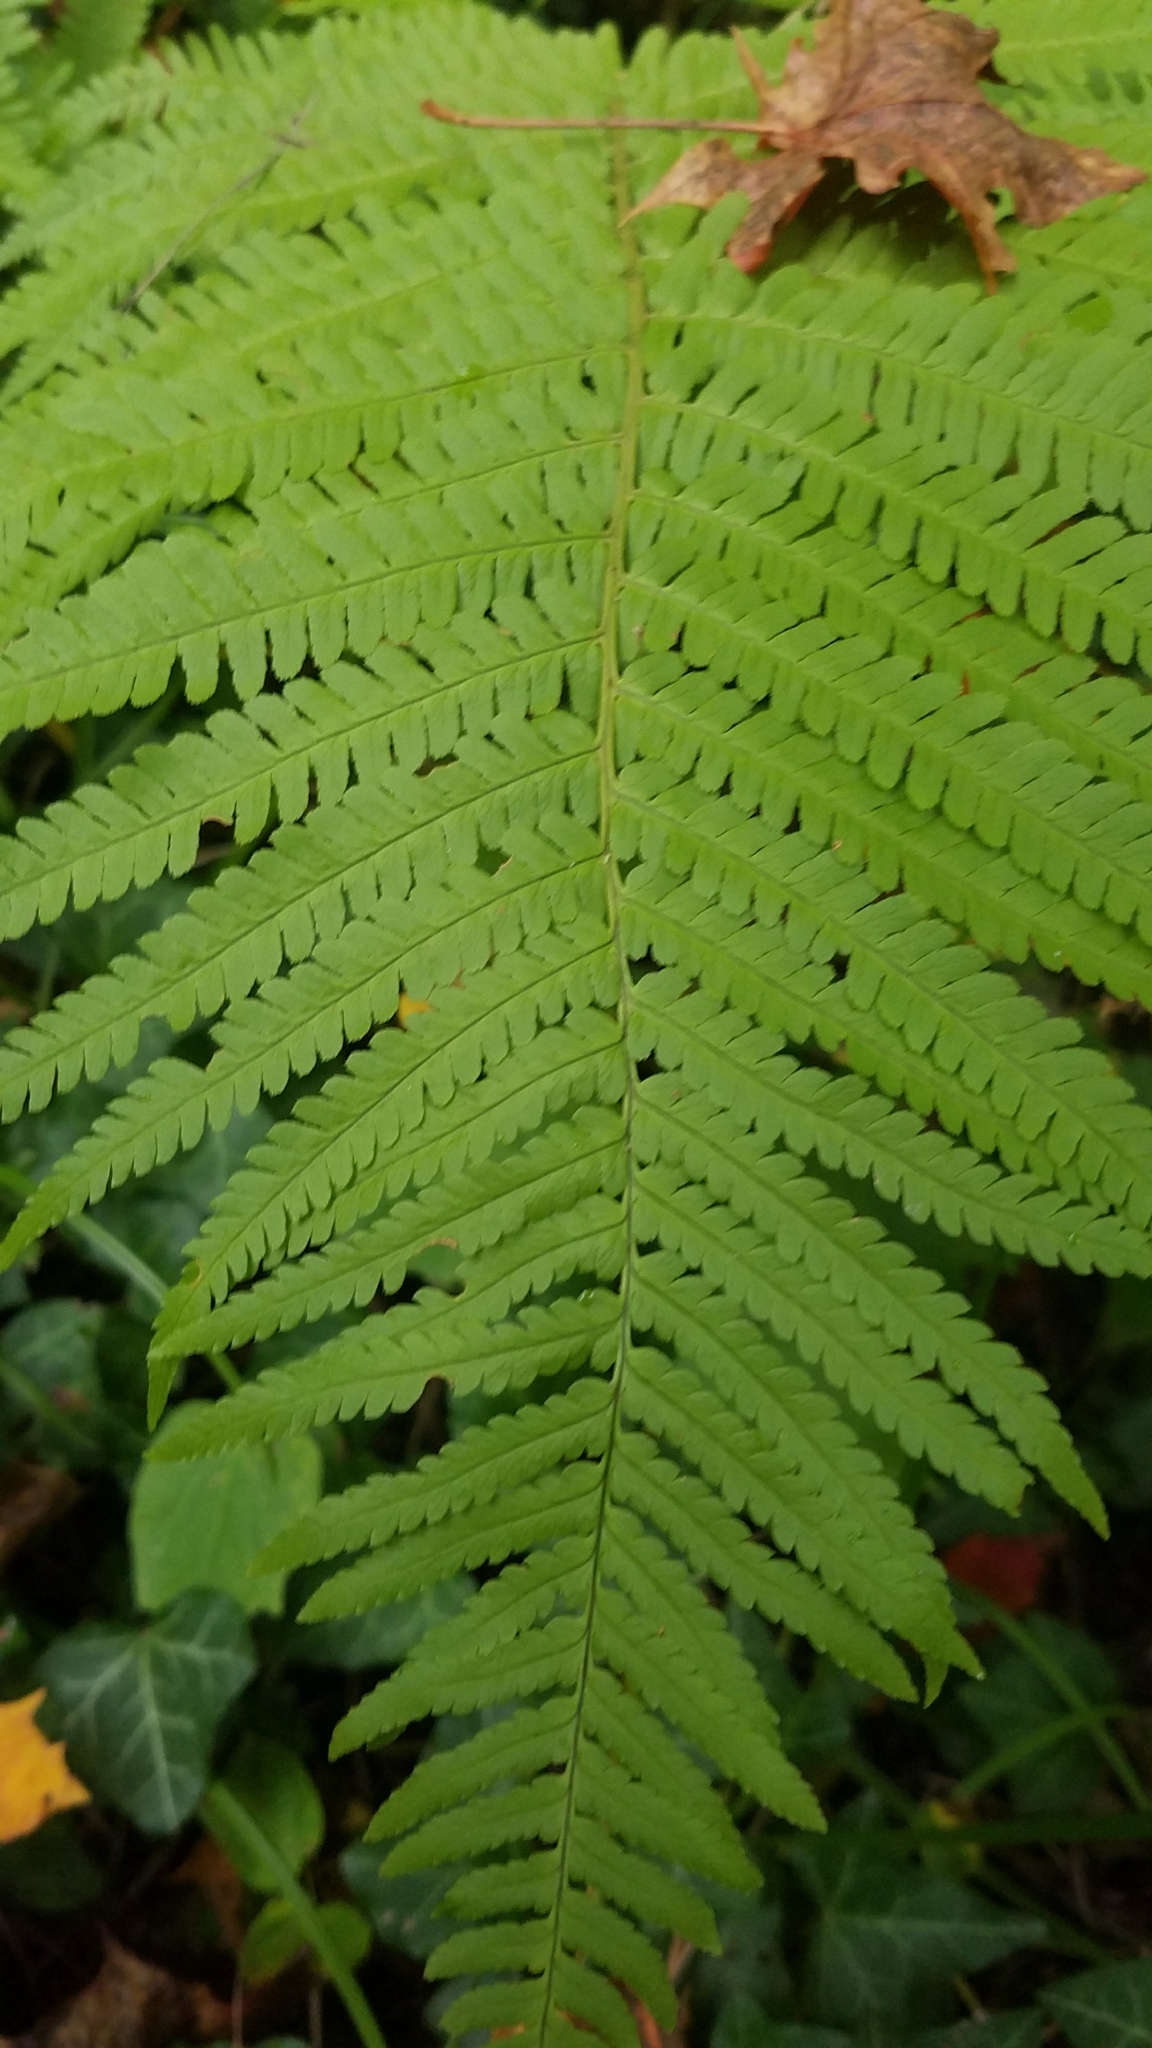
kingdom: Plantae
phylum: Tracheophyta
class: Polypodiopsida
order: Polypodiales
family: Dryopteridaceae
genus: Dryopteris
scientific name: Dryopteris filix-mas
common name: Male fern
